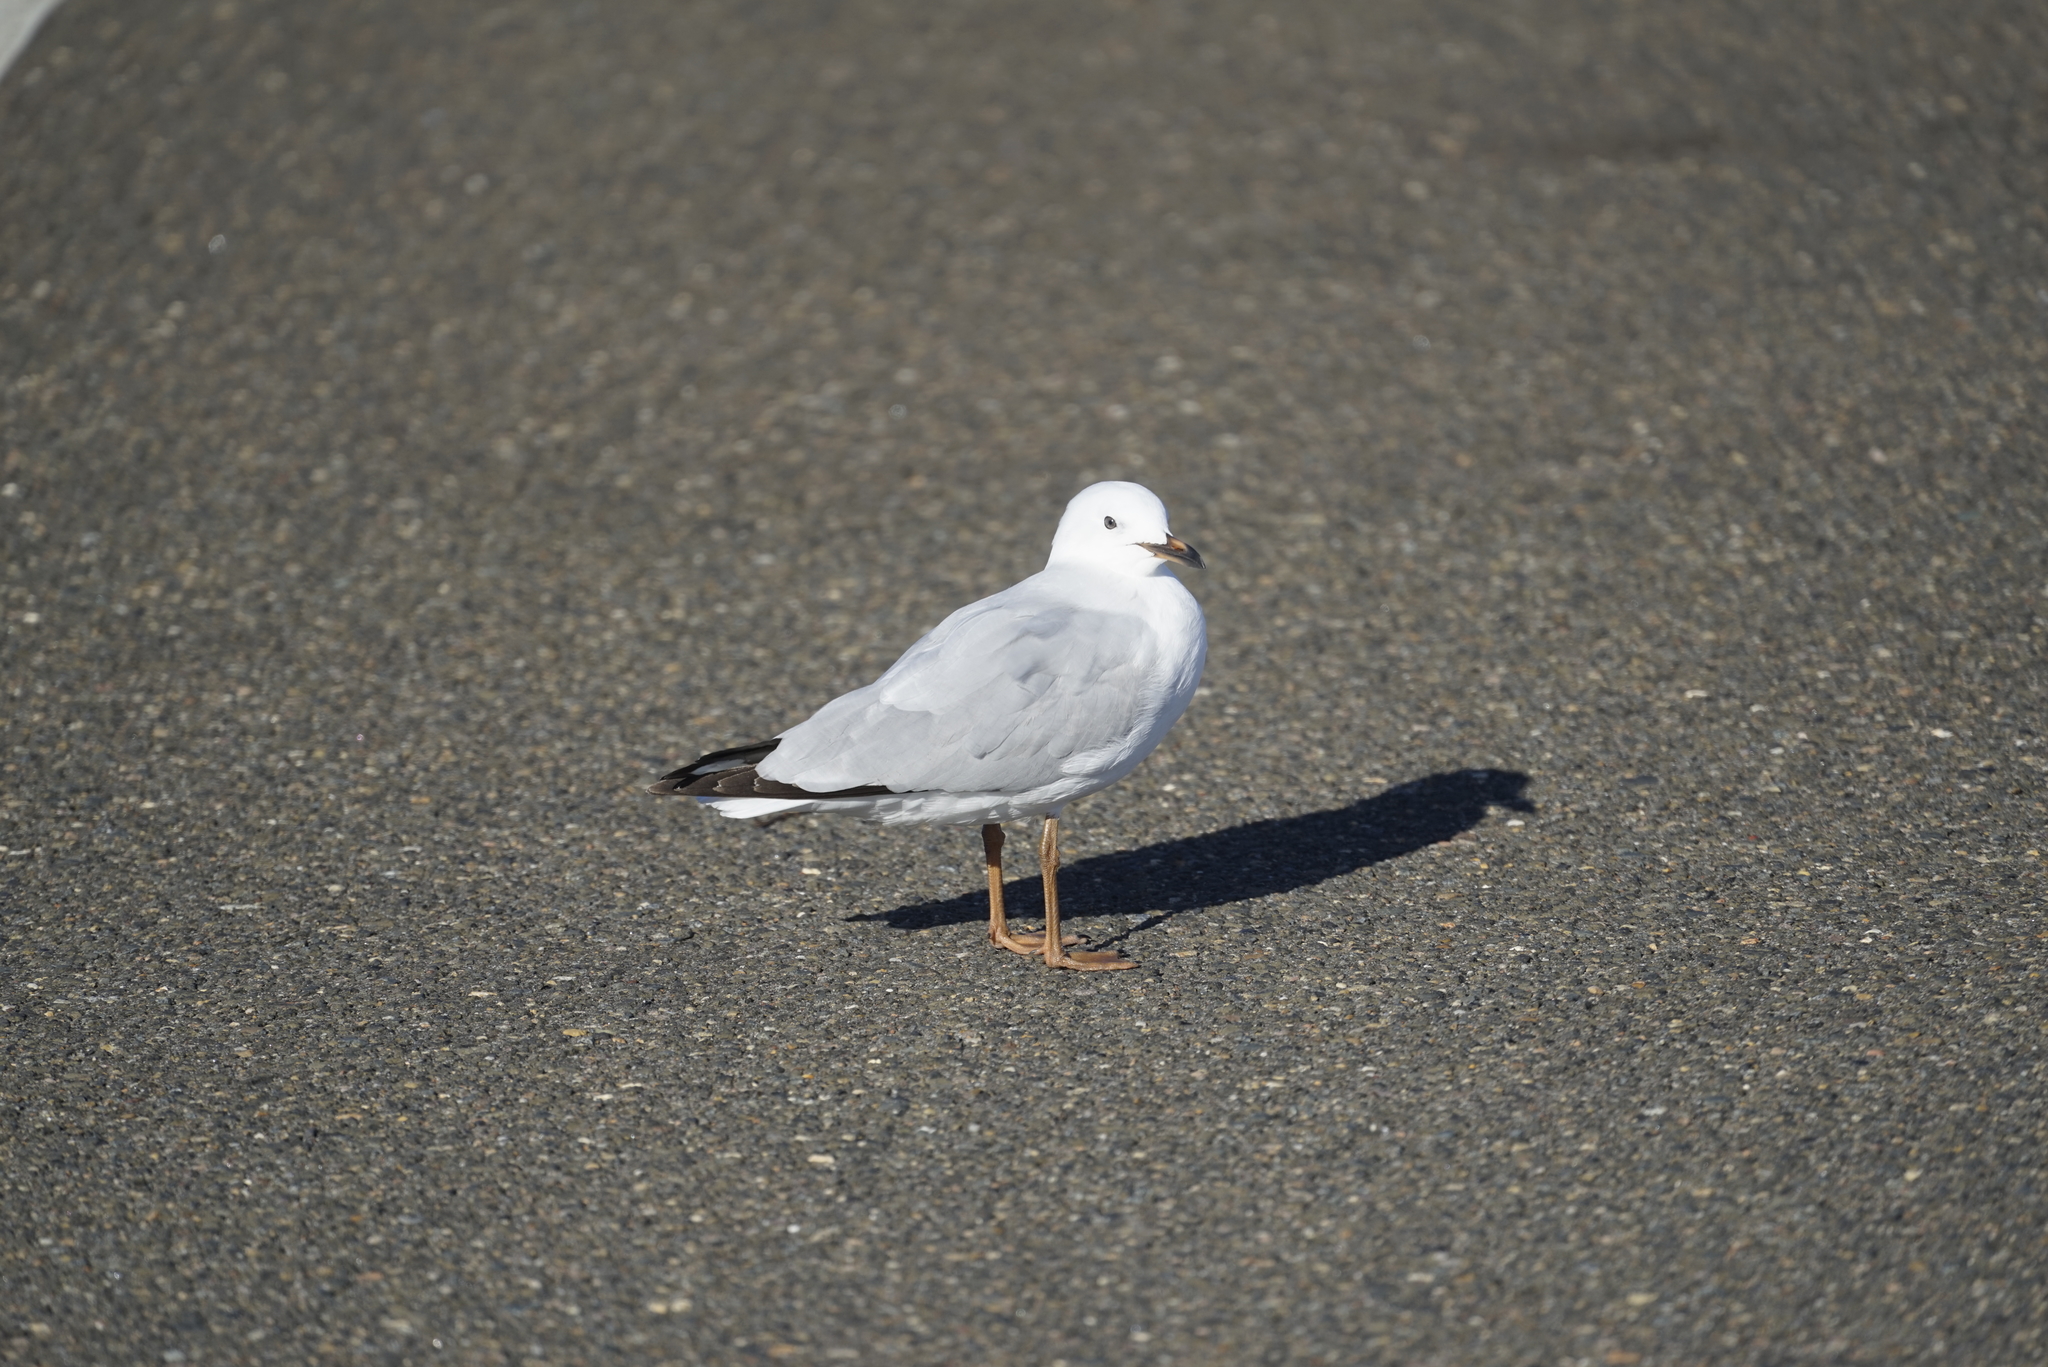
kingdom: Animalia
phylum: Chordata
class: Aves
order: Charadriiformes
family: Laridae
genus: Chroicocephalus
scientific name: Chroicocephalus novaehollandiae
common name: Silver gull
